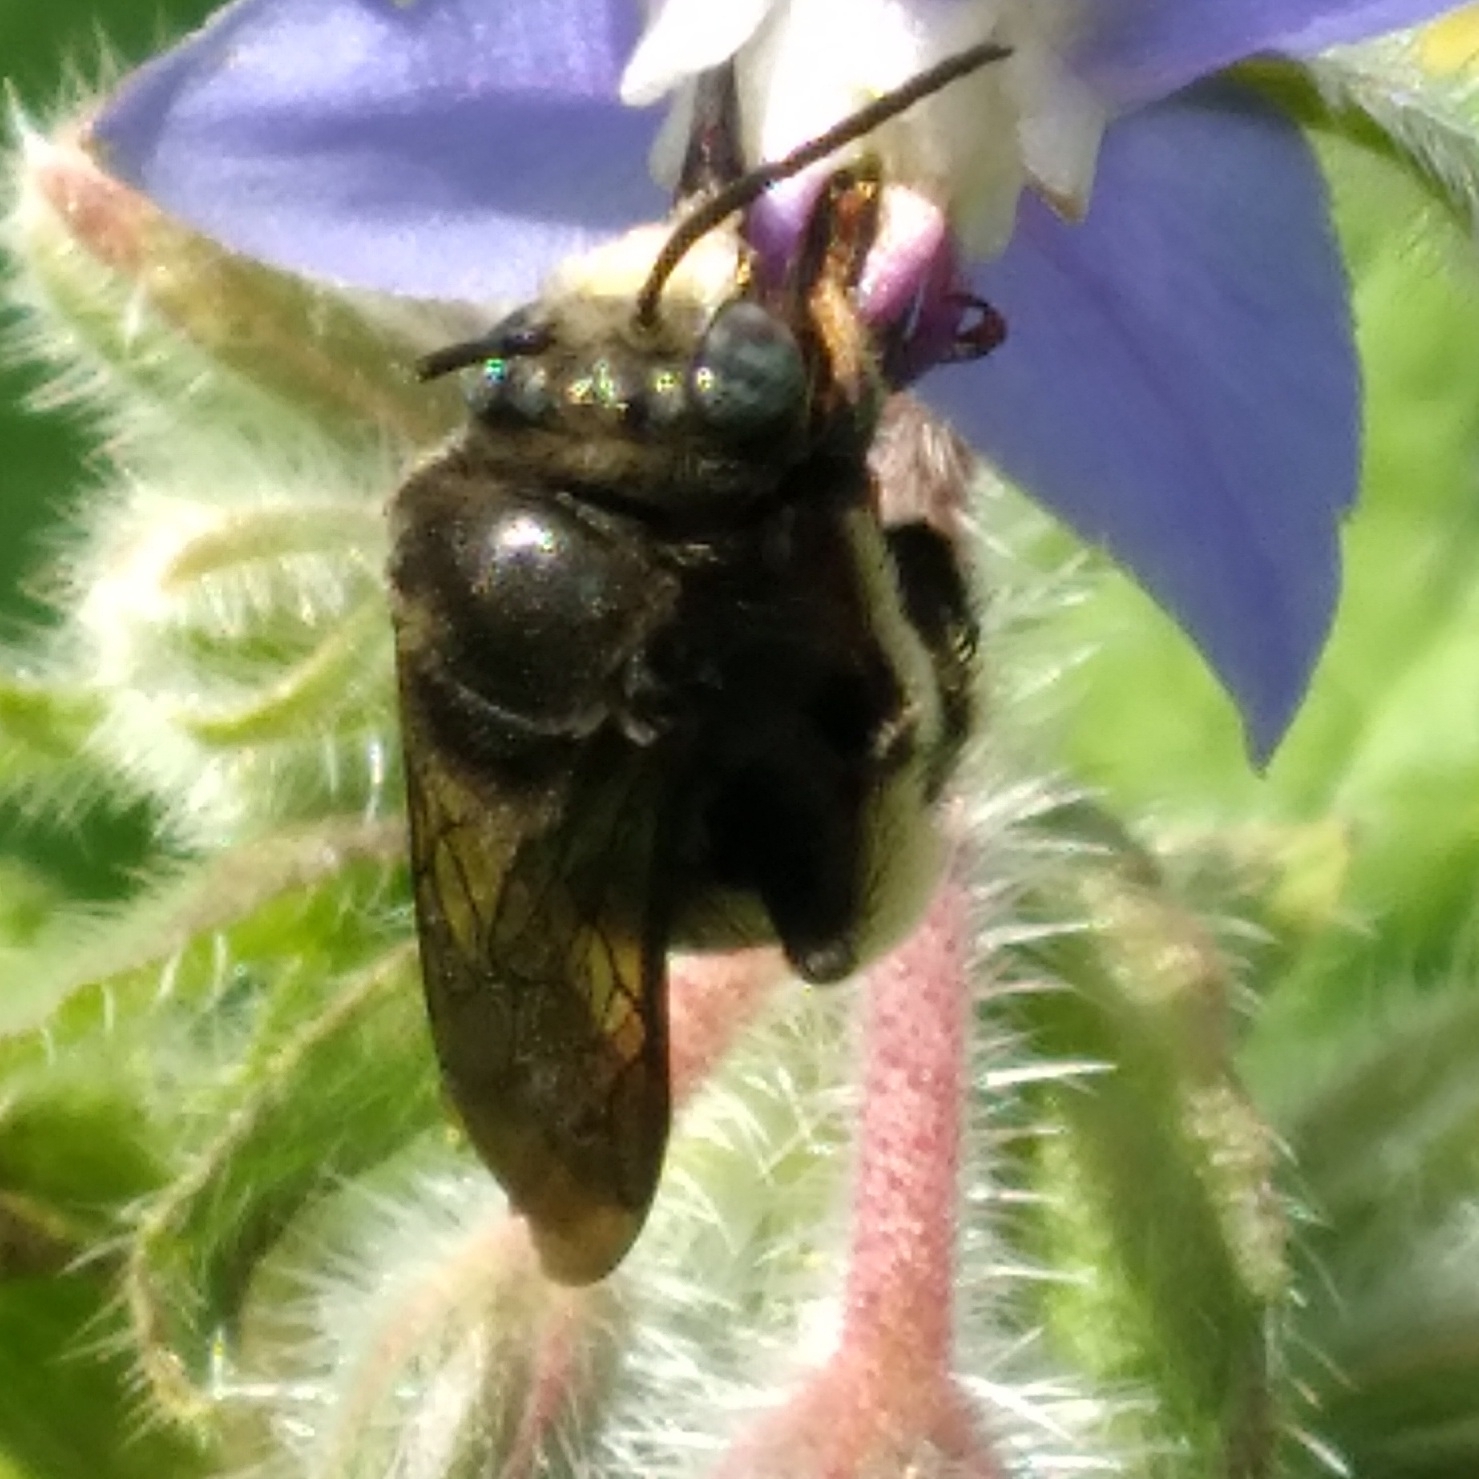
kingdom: Animalia
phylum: Arthropoda
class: Insecta
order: Hymenoptera
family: Apidae
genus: Melissodes
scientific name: Melissodes bimaculatus
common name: Two-spotted long-horned bee
